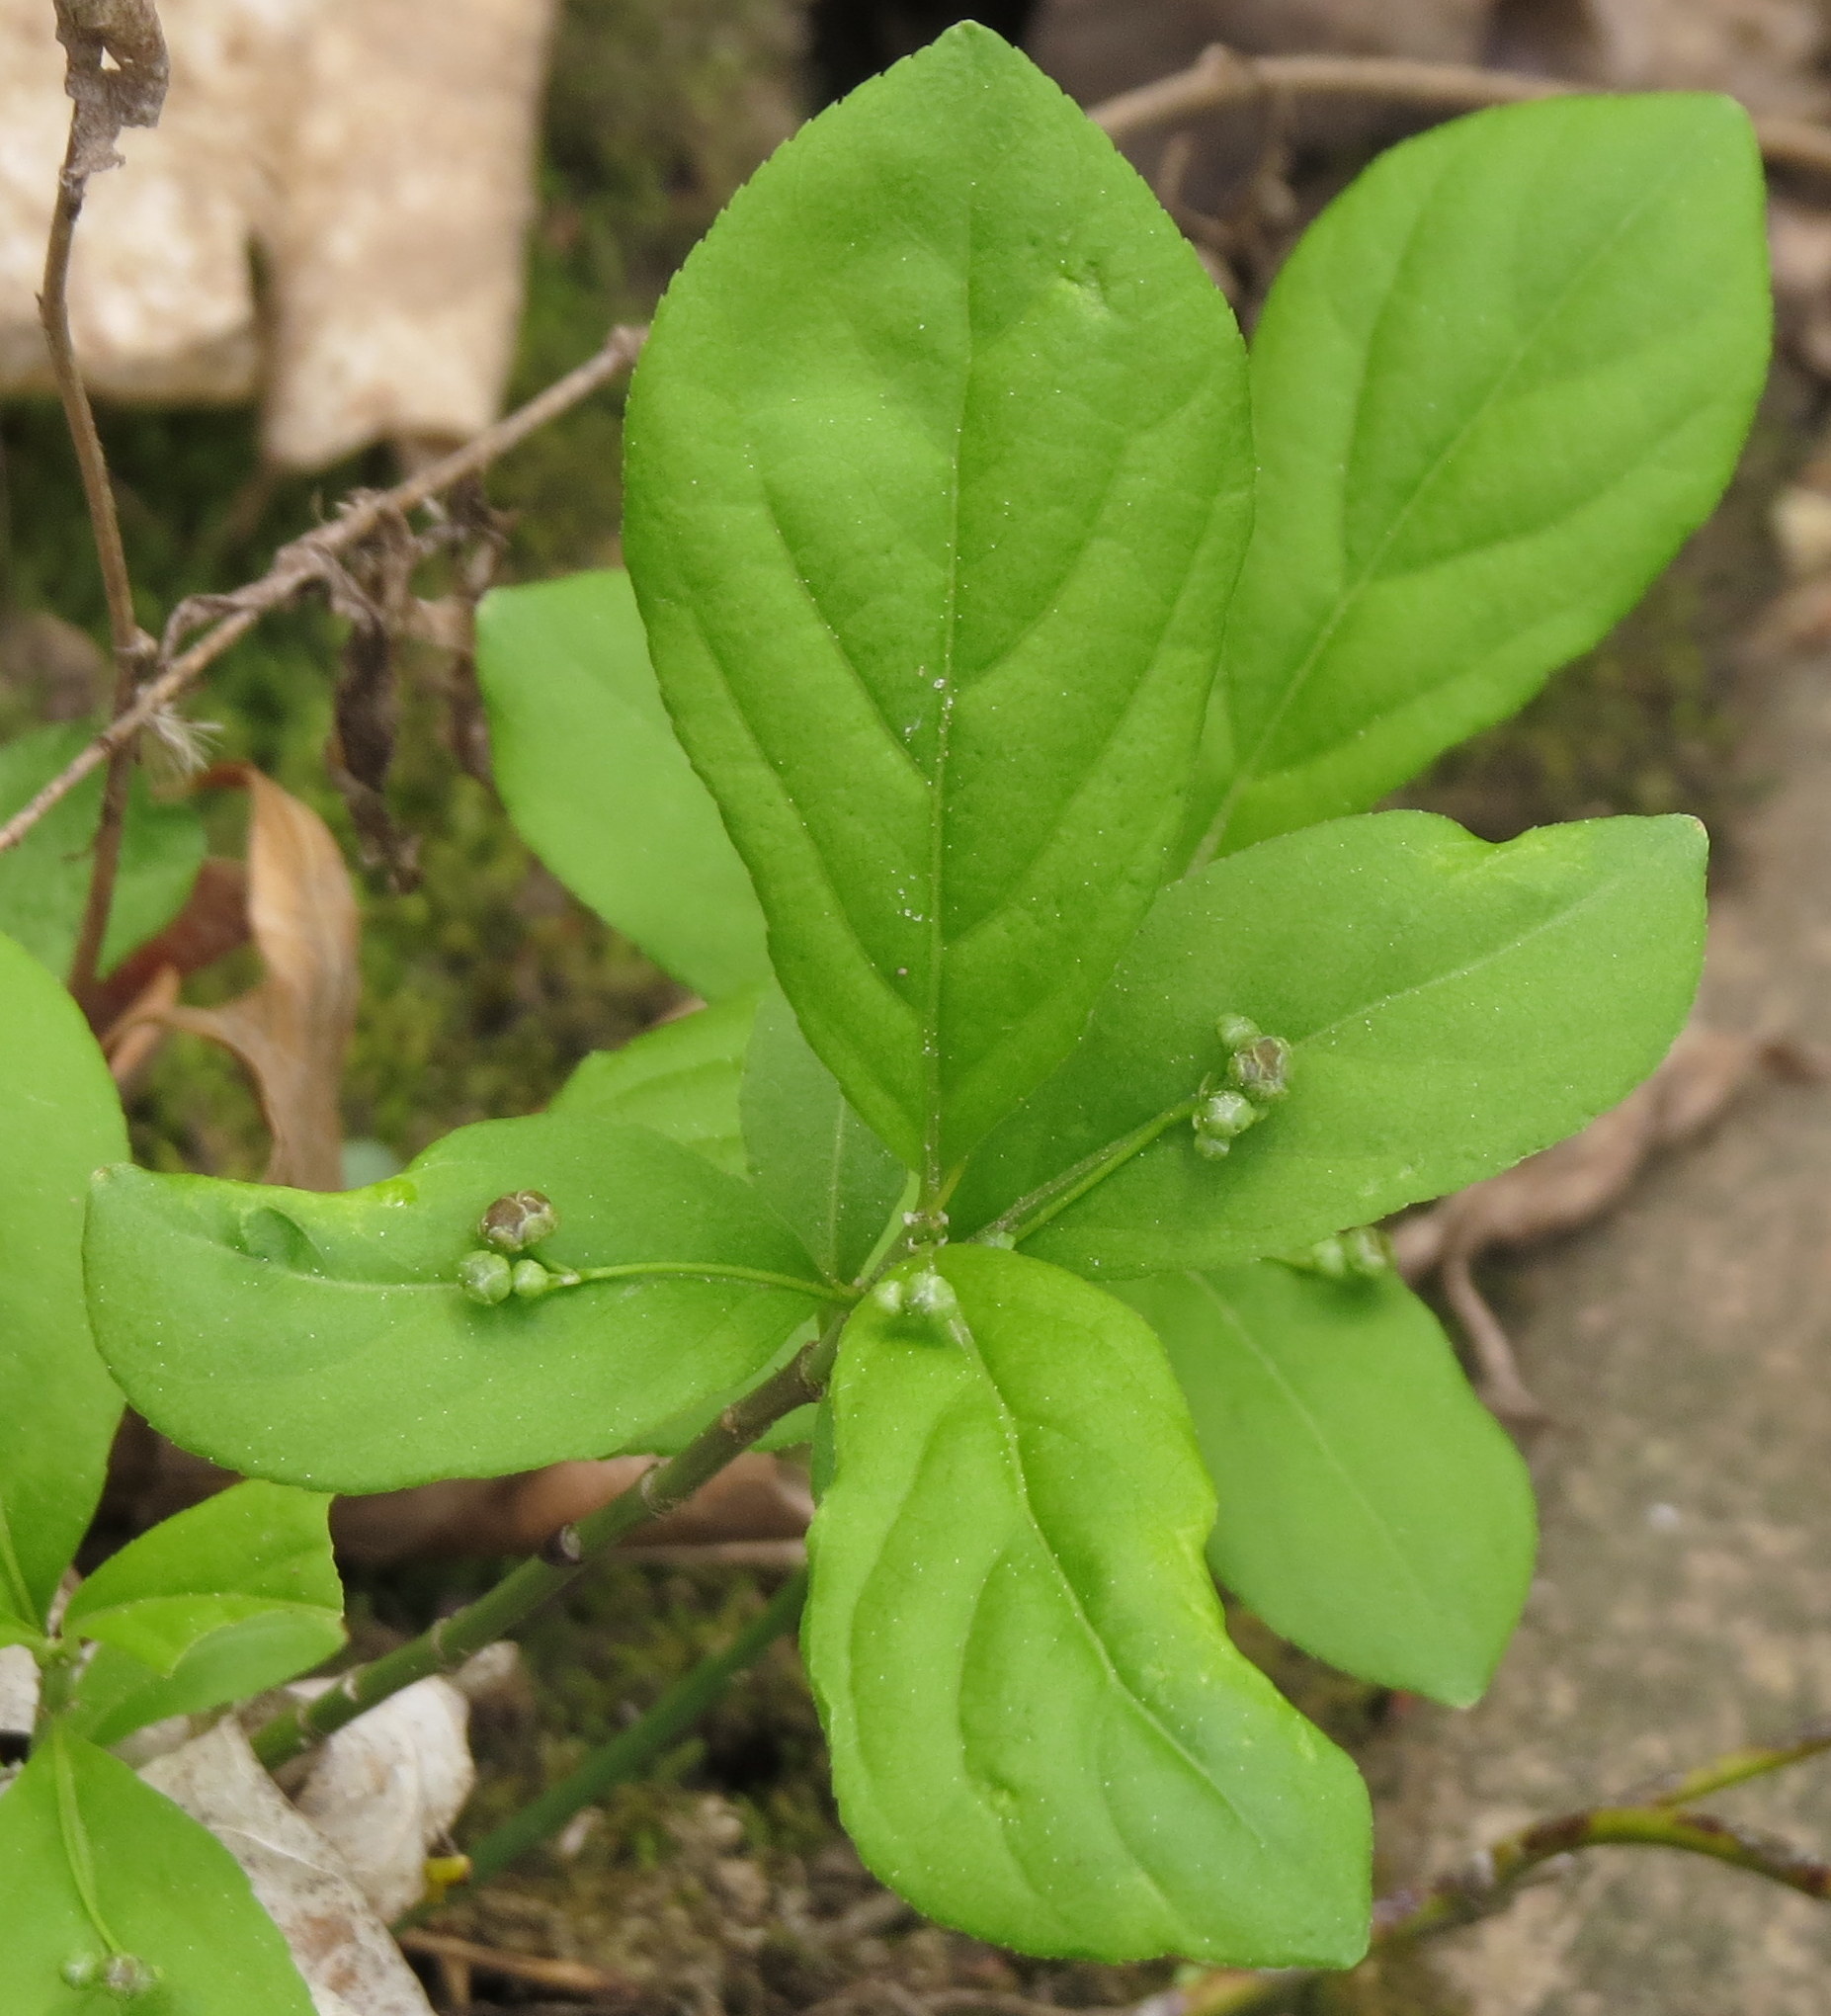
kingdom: Plantae
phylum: Tracheophyta
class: Magnoliopsida
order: Celastrales
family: Celastraceae
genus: Euonymus
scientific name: Euonymus obovatus
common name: Running strawberry-bush
